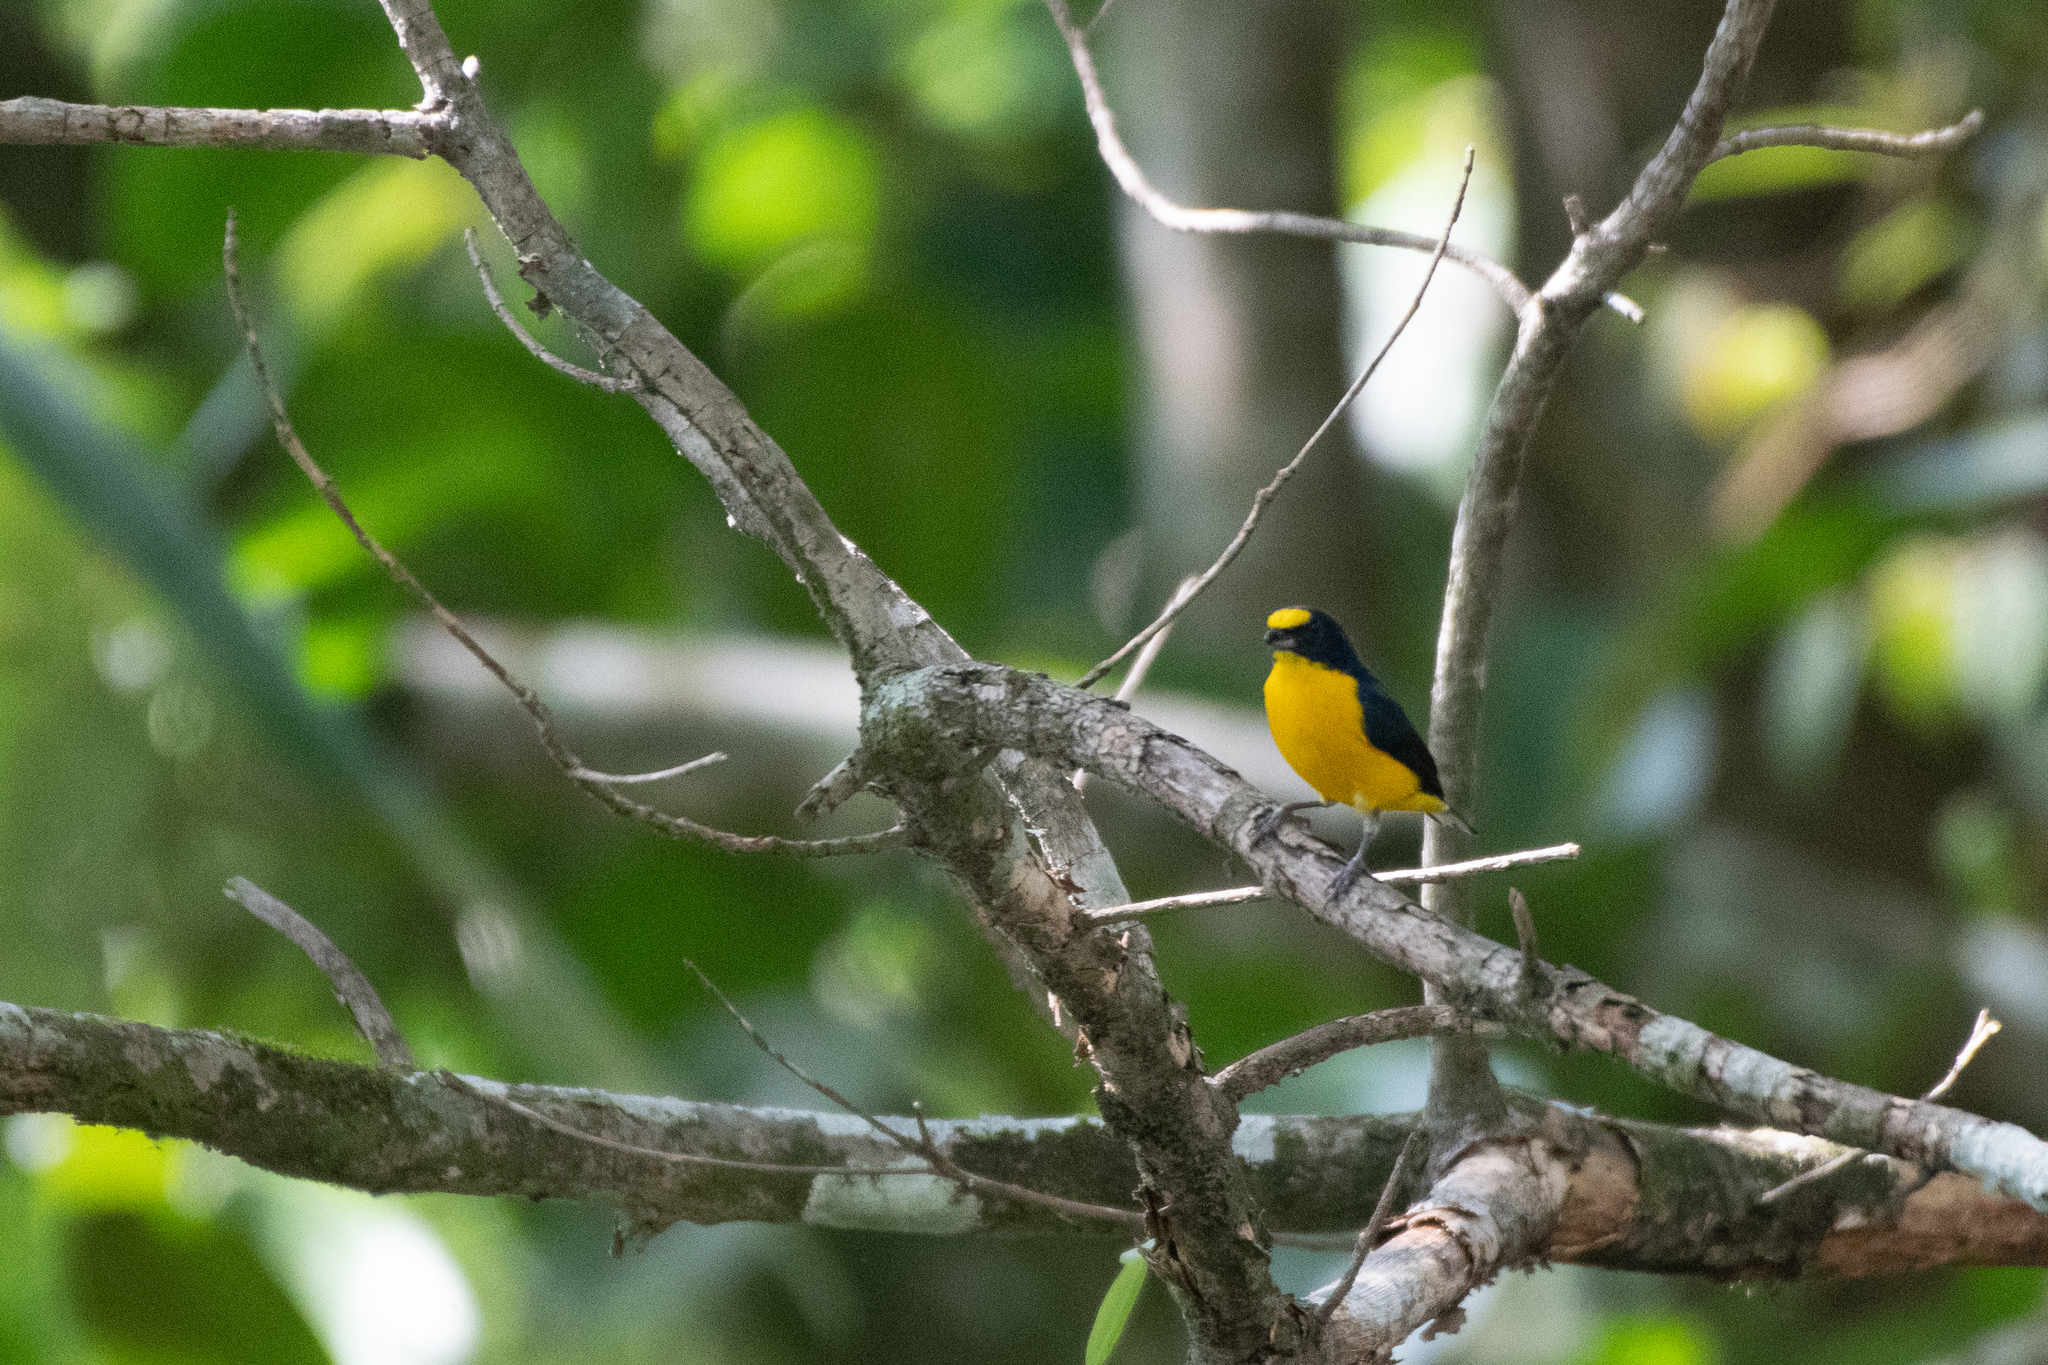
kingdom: Animalia
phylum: Chordata
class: Aves
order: Passeriformes
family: Fringillidae
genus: Euphonia
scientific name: Euphonia hirundinacea
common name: Yellow-throated euphonia
